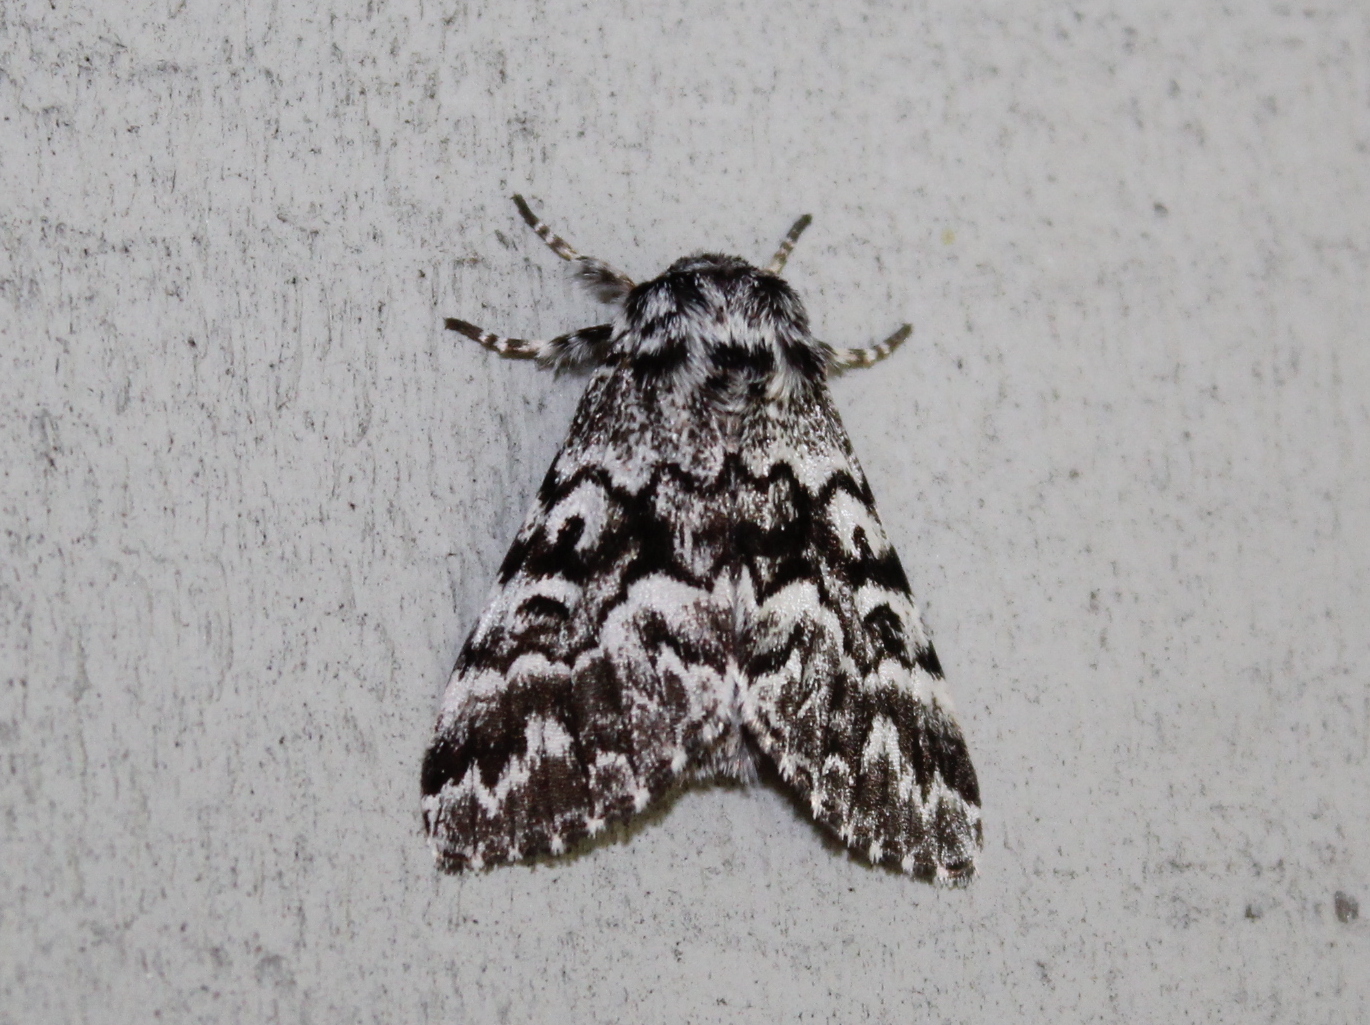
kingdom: Animalia
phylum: Arthropoda
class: Insecta
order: Lepidoptera
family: Noctuidae
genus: Panthea
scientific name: Panthea acronyctoides
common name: Black zigzag moth
